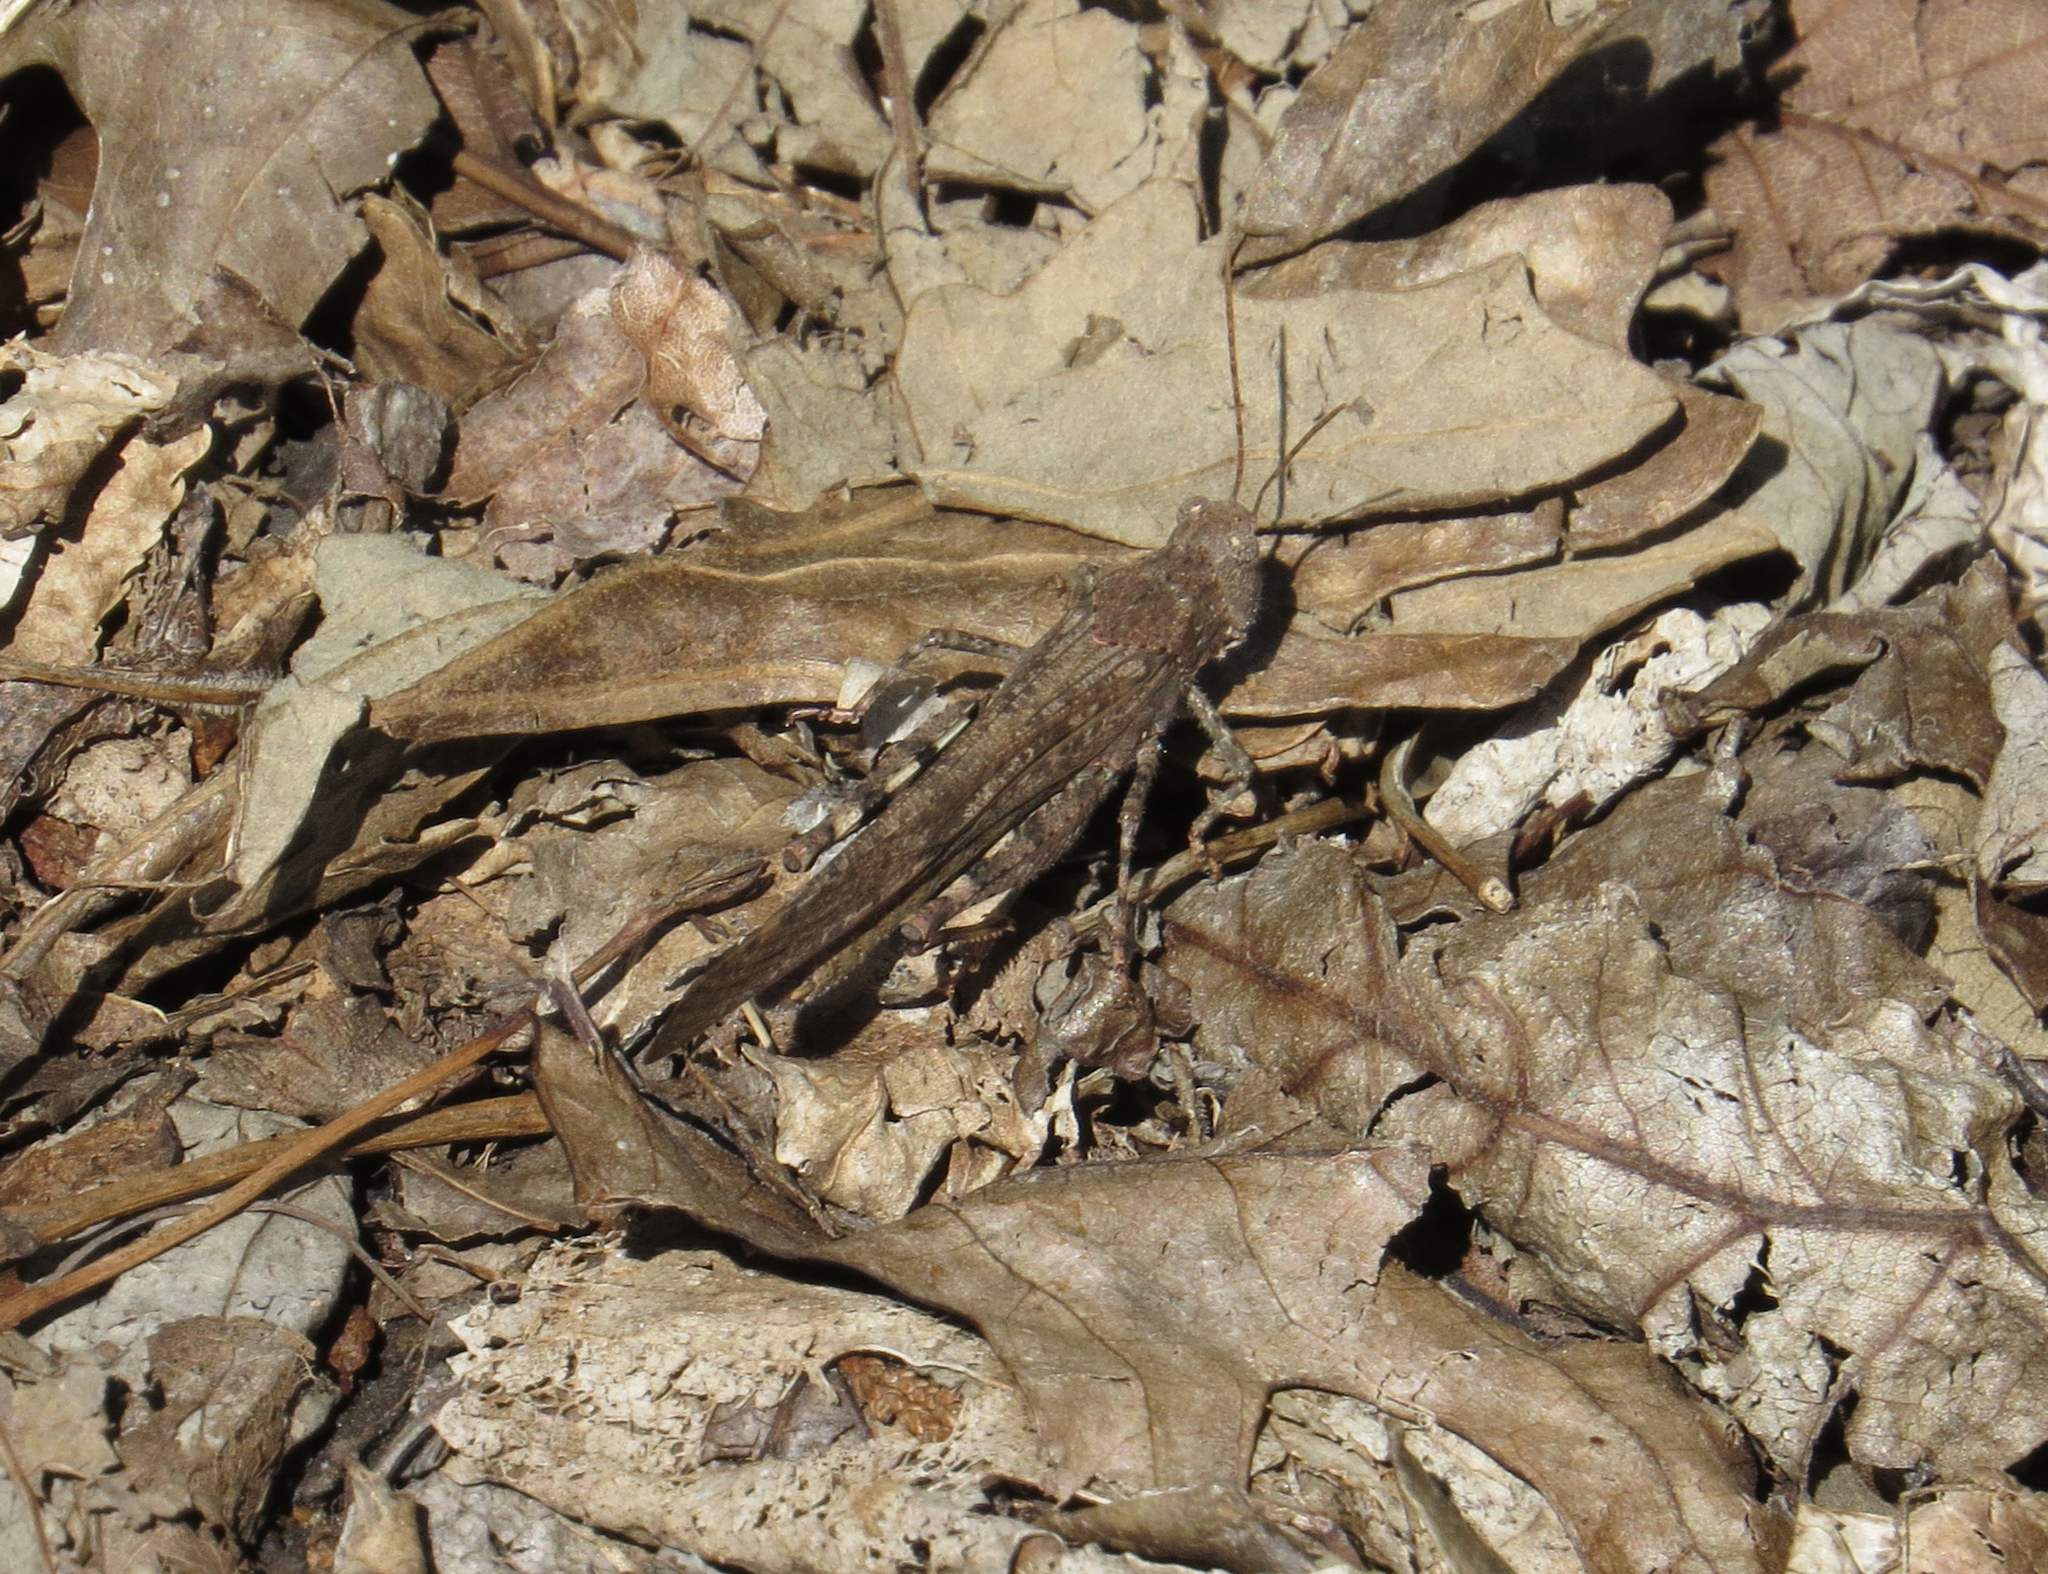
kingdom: Animalia
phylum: Arthropoda
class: Insecta
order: Orthoptera
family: Acrididae
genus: Dissosteira
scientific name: Dissosteira carolina
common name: Carolina grasshopper
